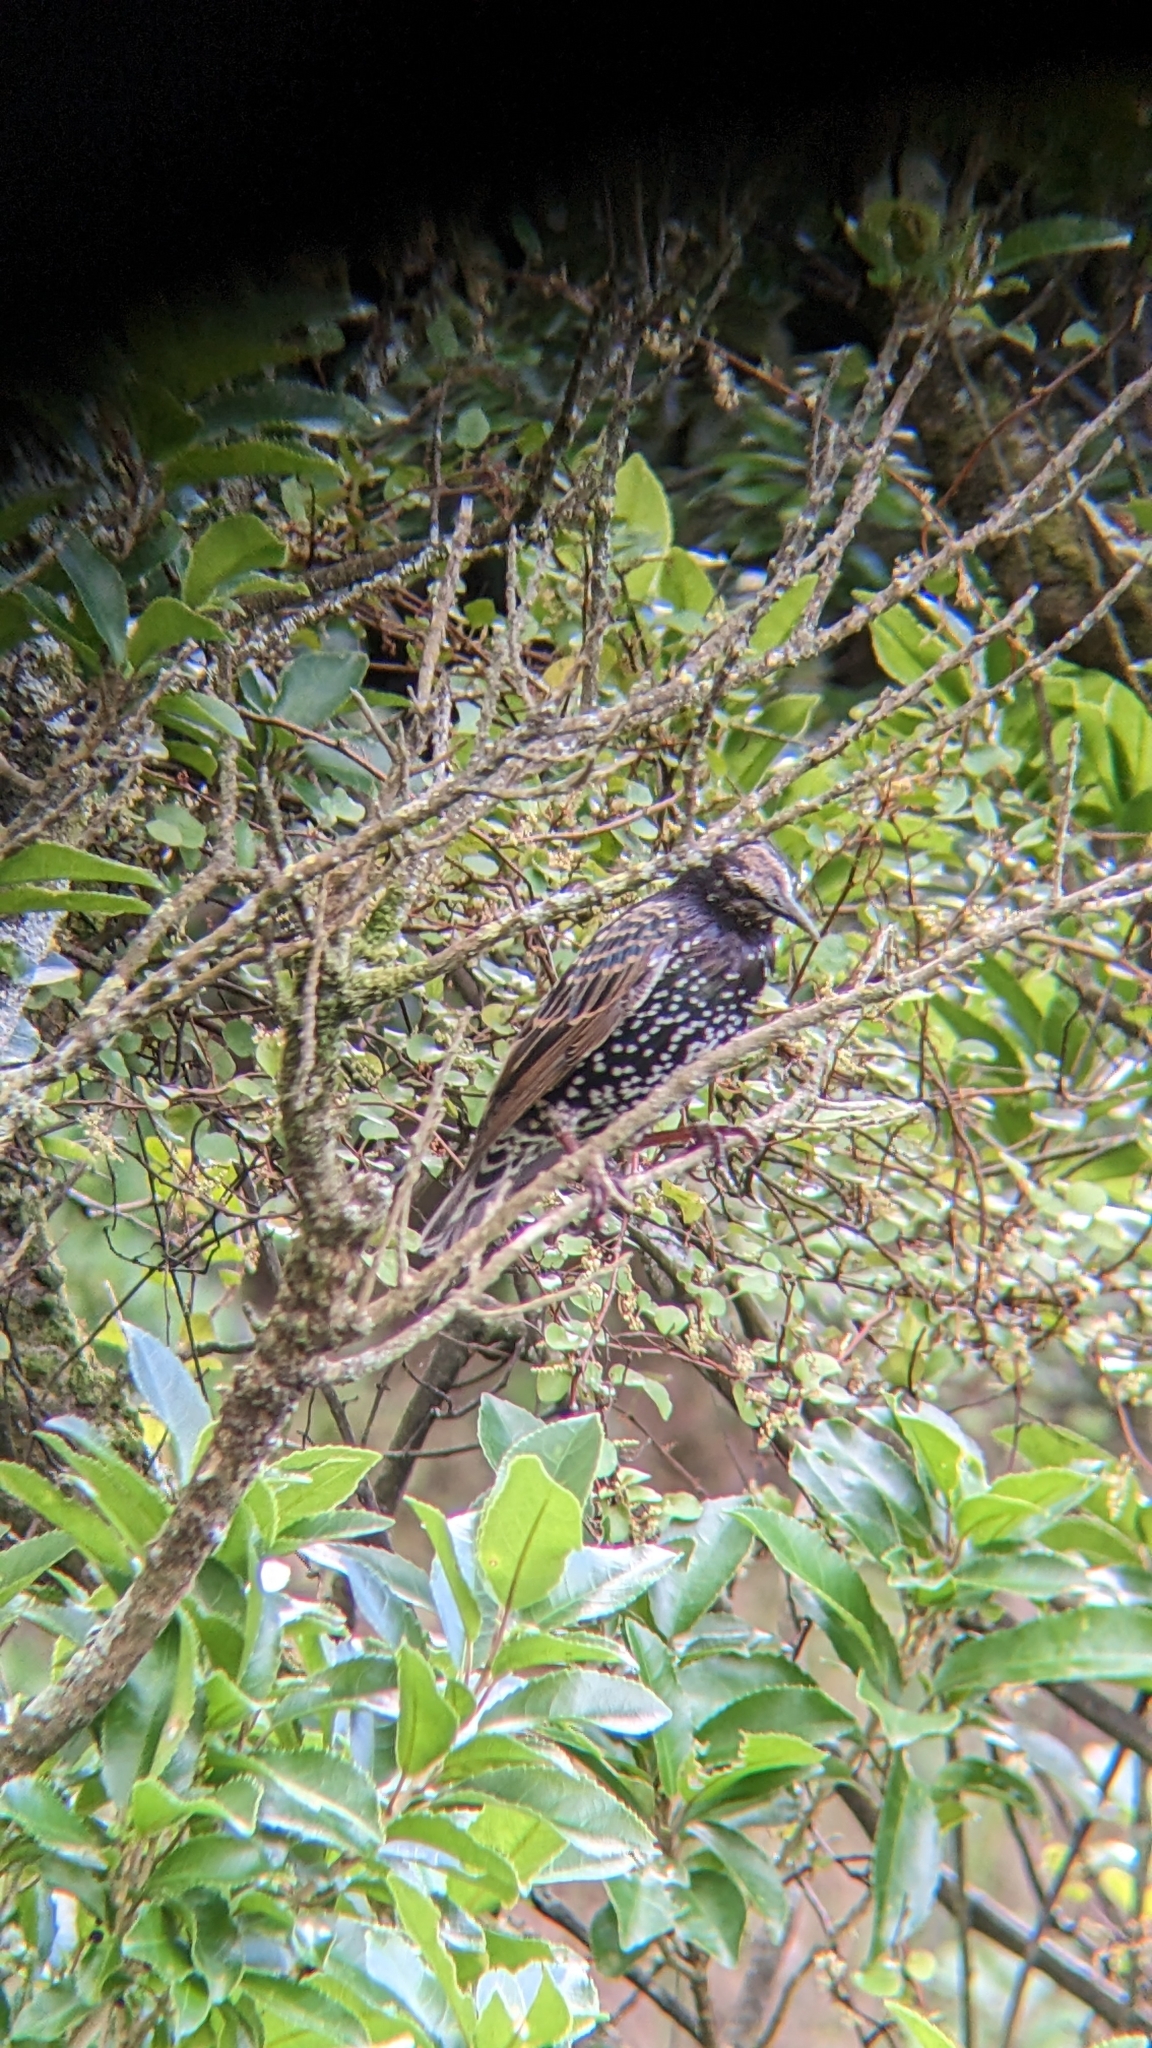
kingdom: Animalia
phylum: Chordata
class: Aves
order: Passeriformes
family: Sturnidae
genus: Sturnus
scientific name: Sturnus vulgaris
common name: Common starling
